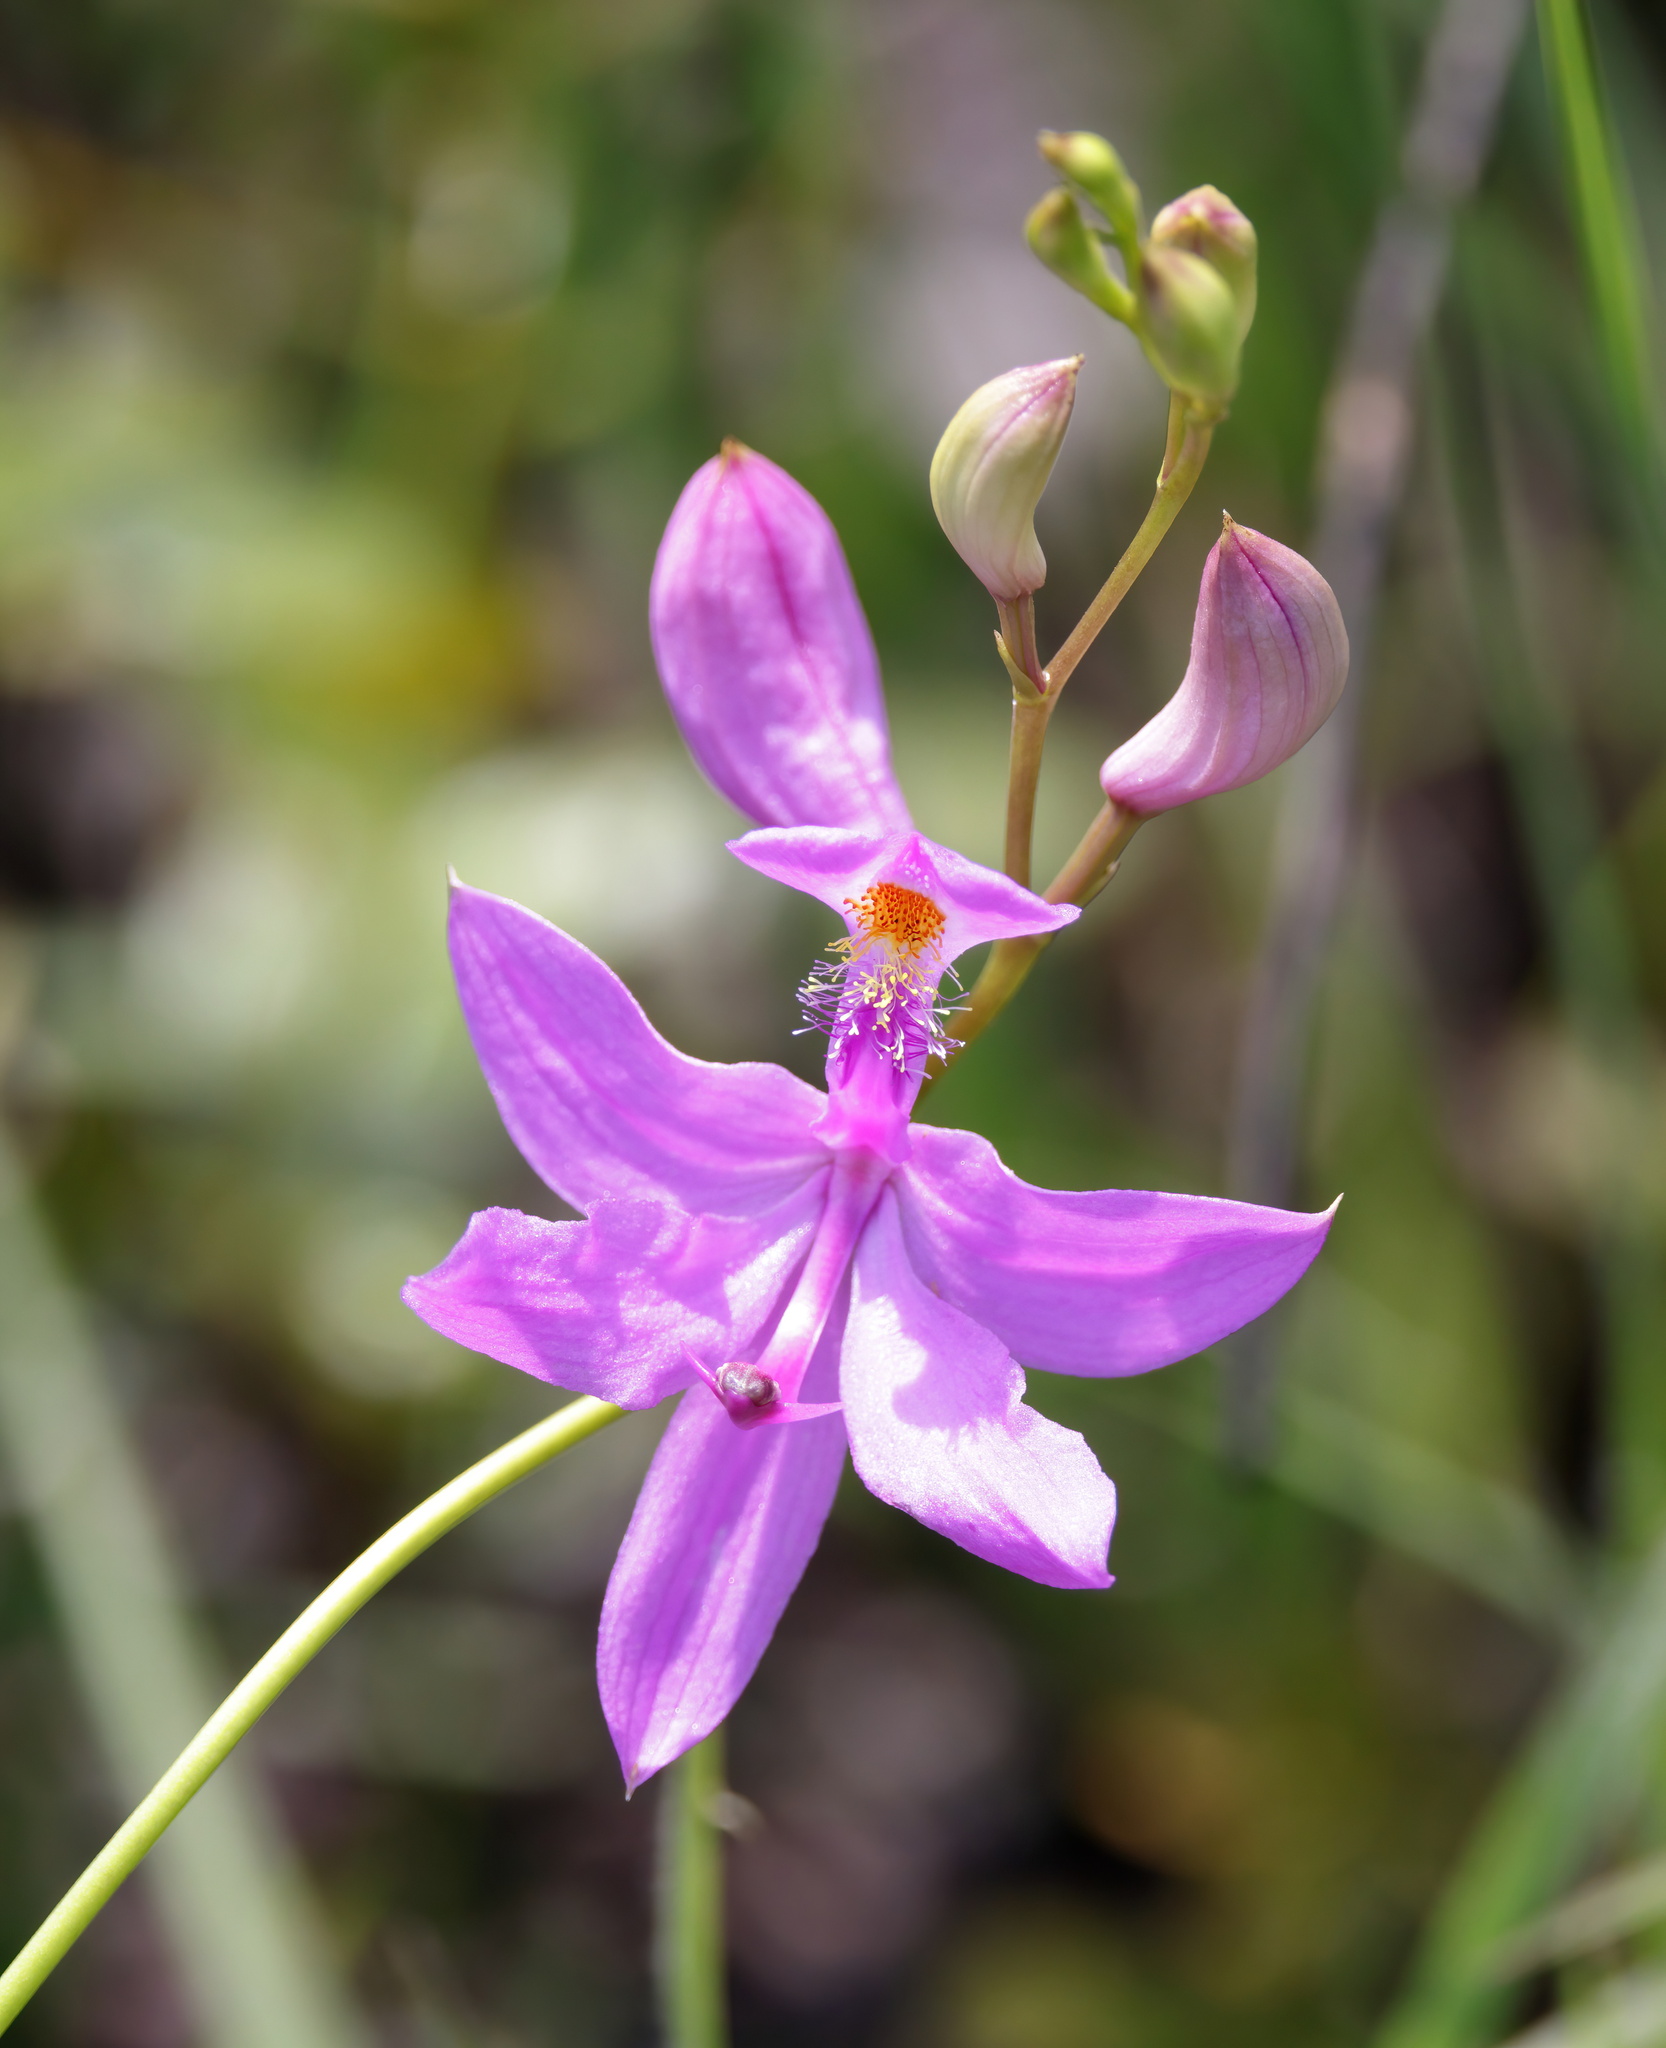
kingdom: Plantae
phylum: Tracheophyta
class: Liliopsida
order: Asparagales
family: Orchidaceae
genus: Calopogon
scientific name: Calopogon tuberosus
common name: Grass-pink
